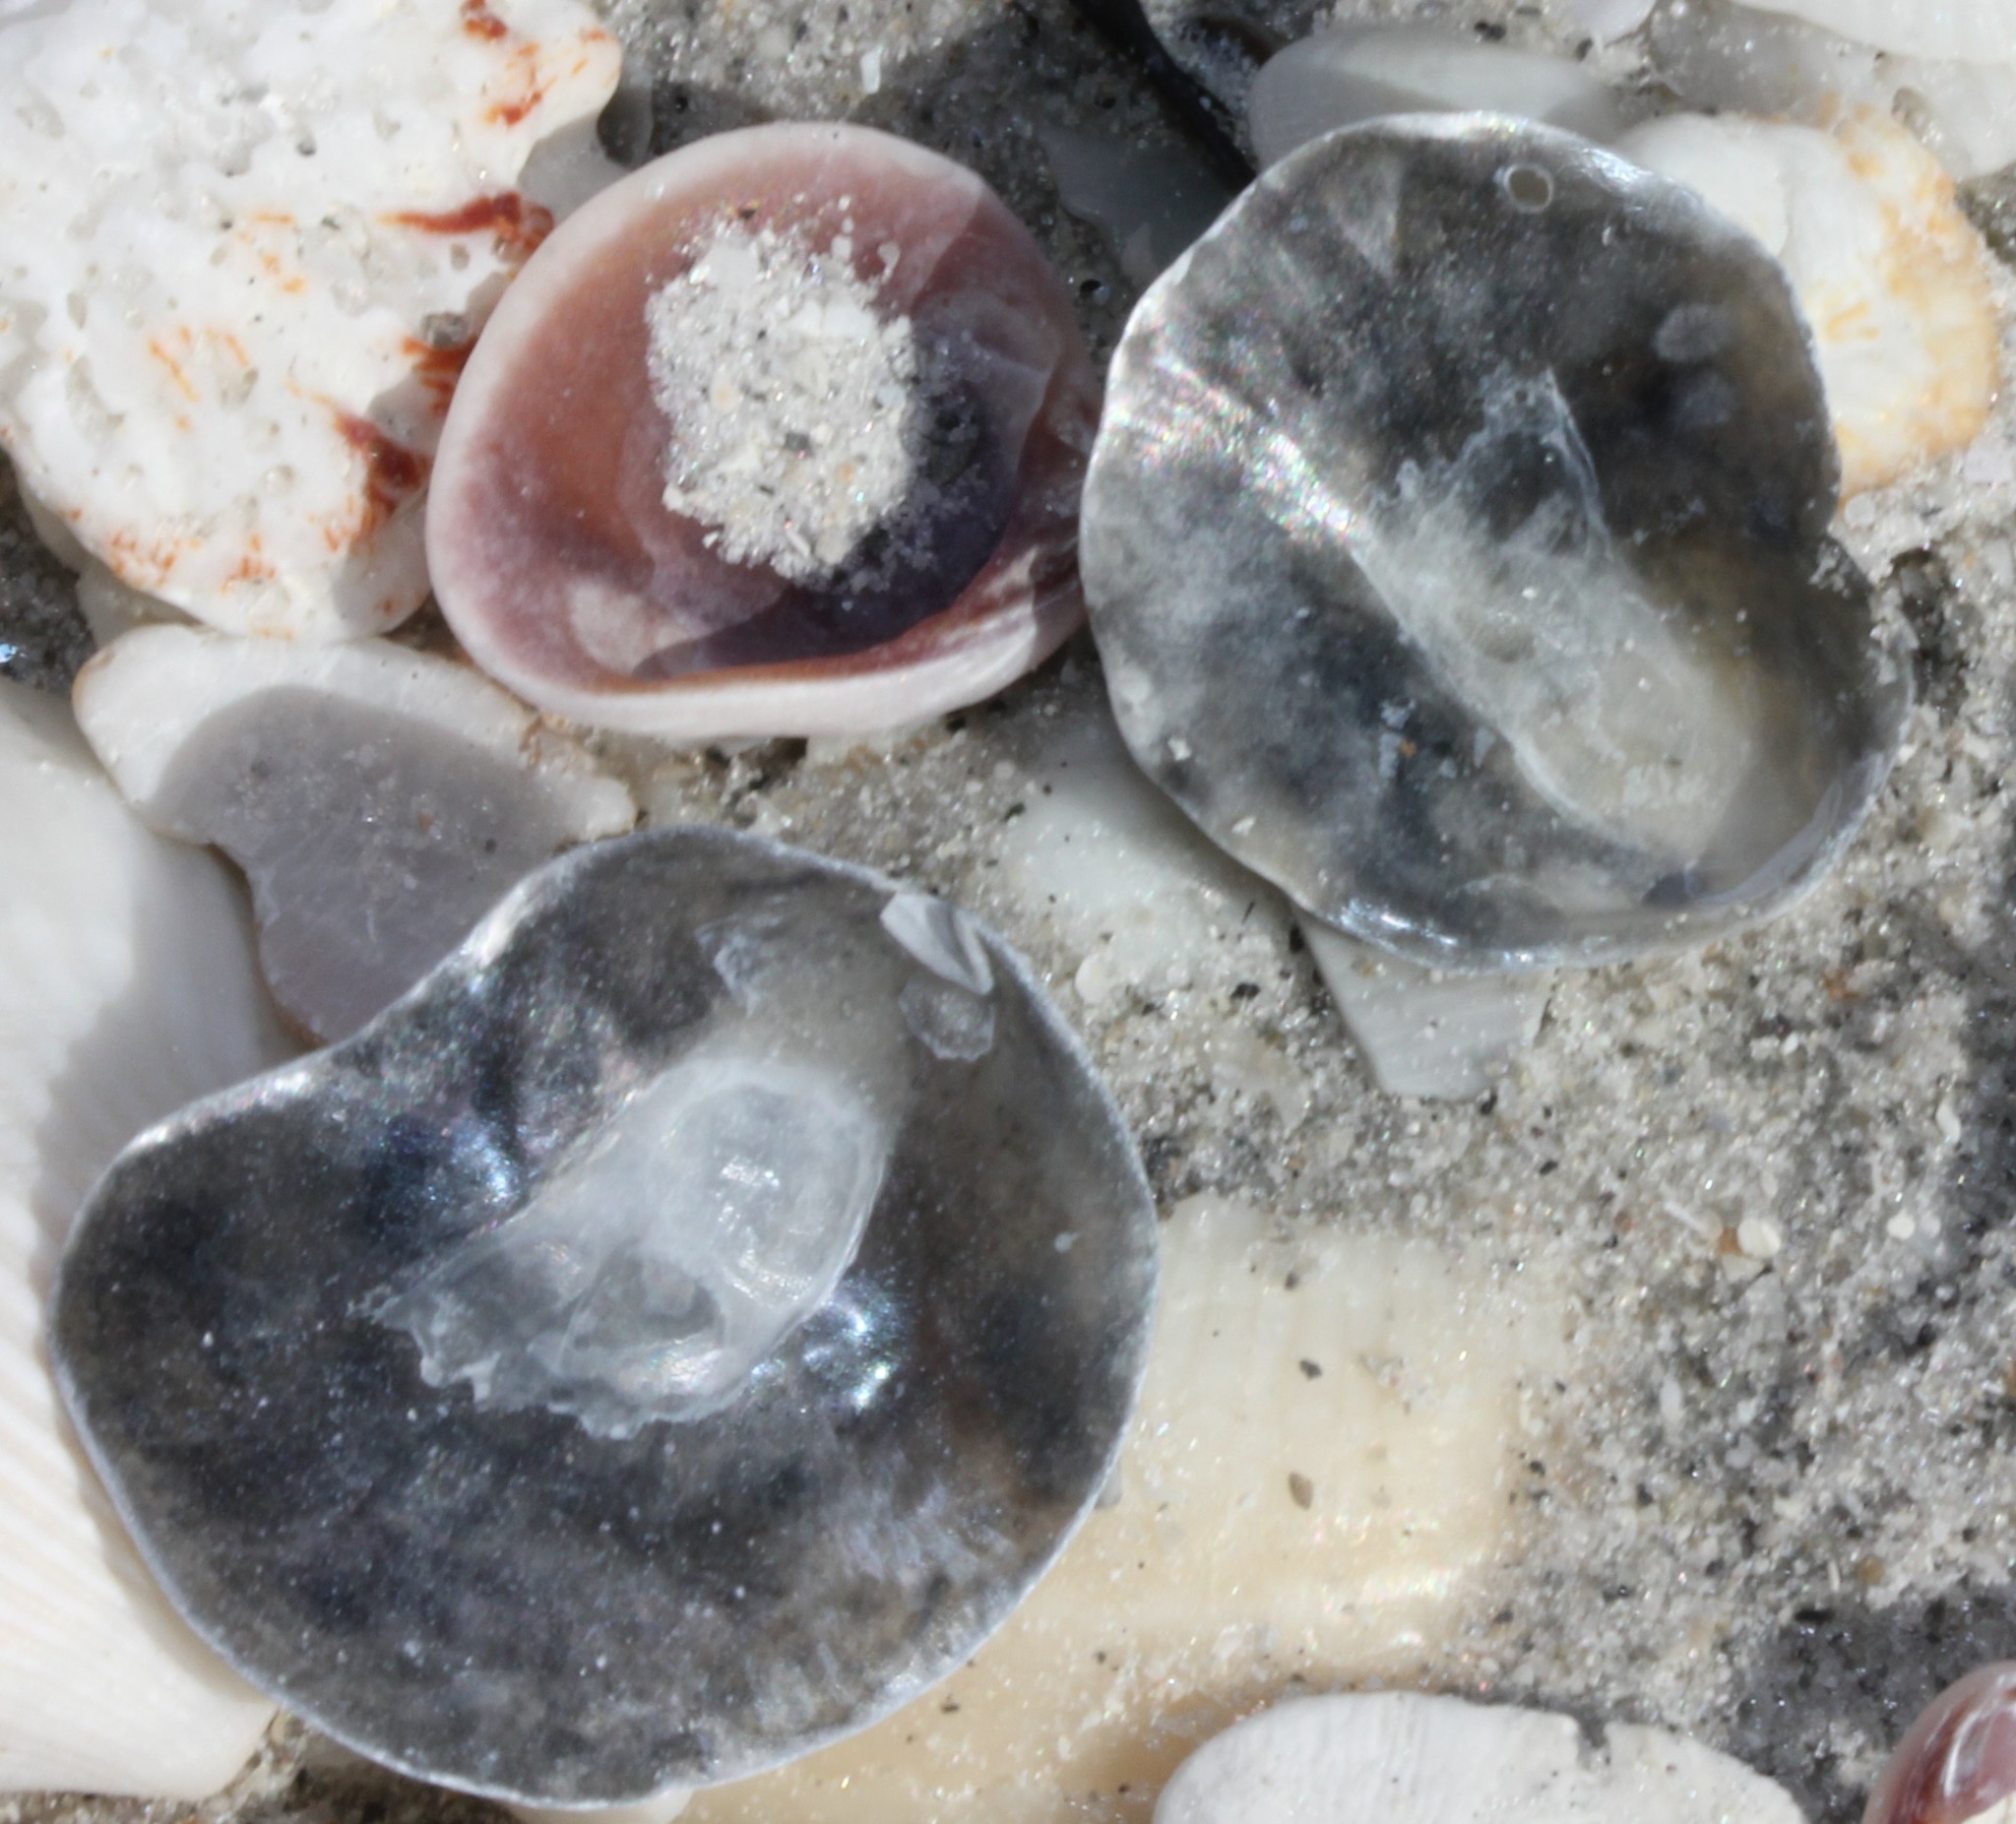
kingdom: Animalia
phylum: Mollusca
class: Bivalvia
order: Pectinida
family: Anomiidae
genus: Anomia
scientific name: Anomia simplex
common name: Common jingle shell
